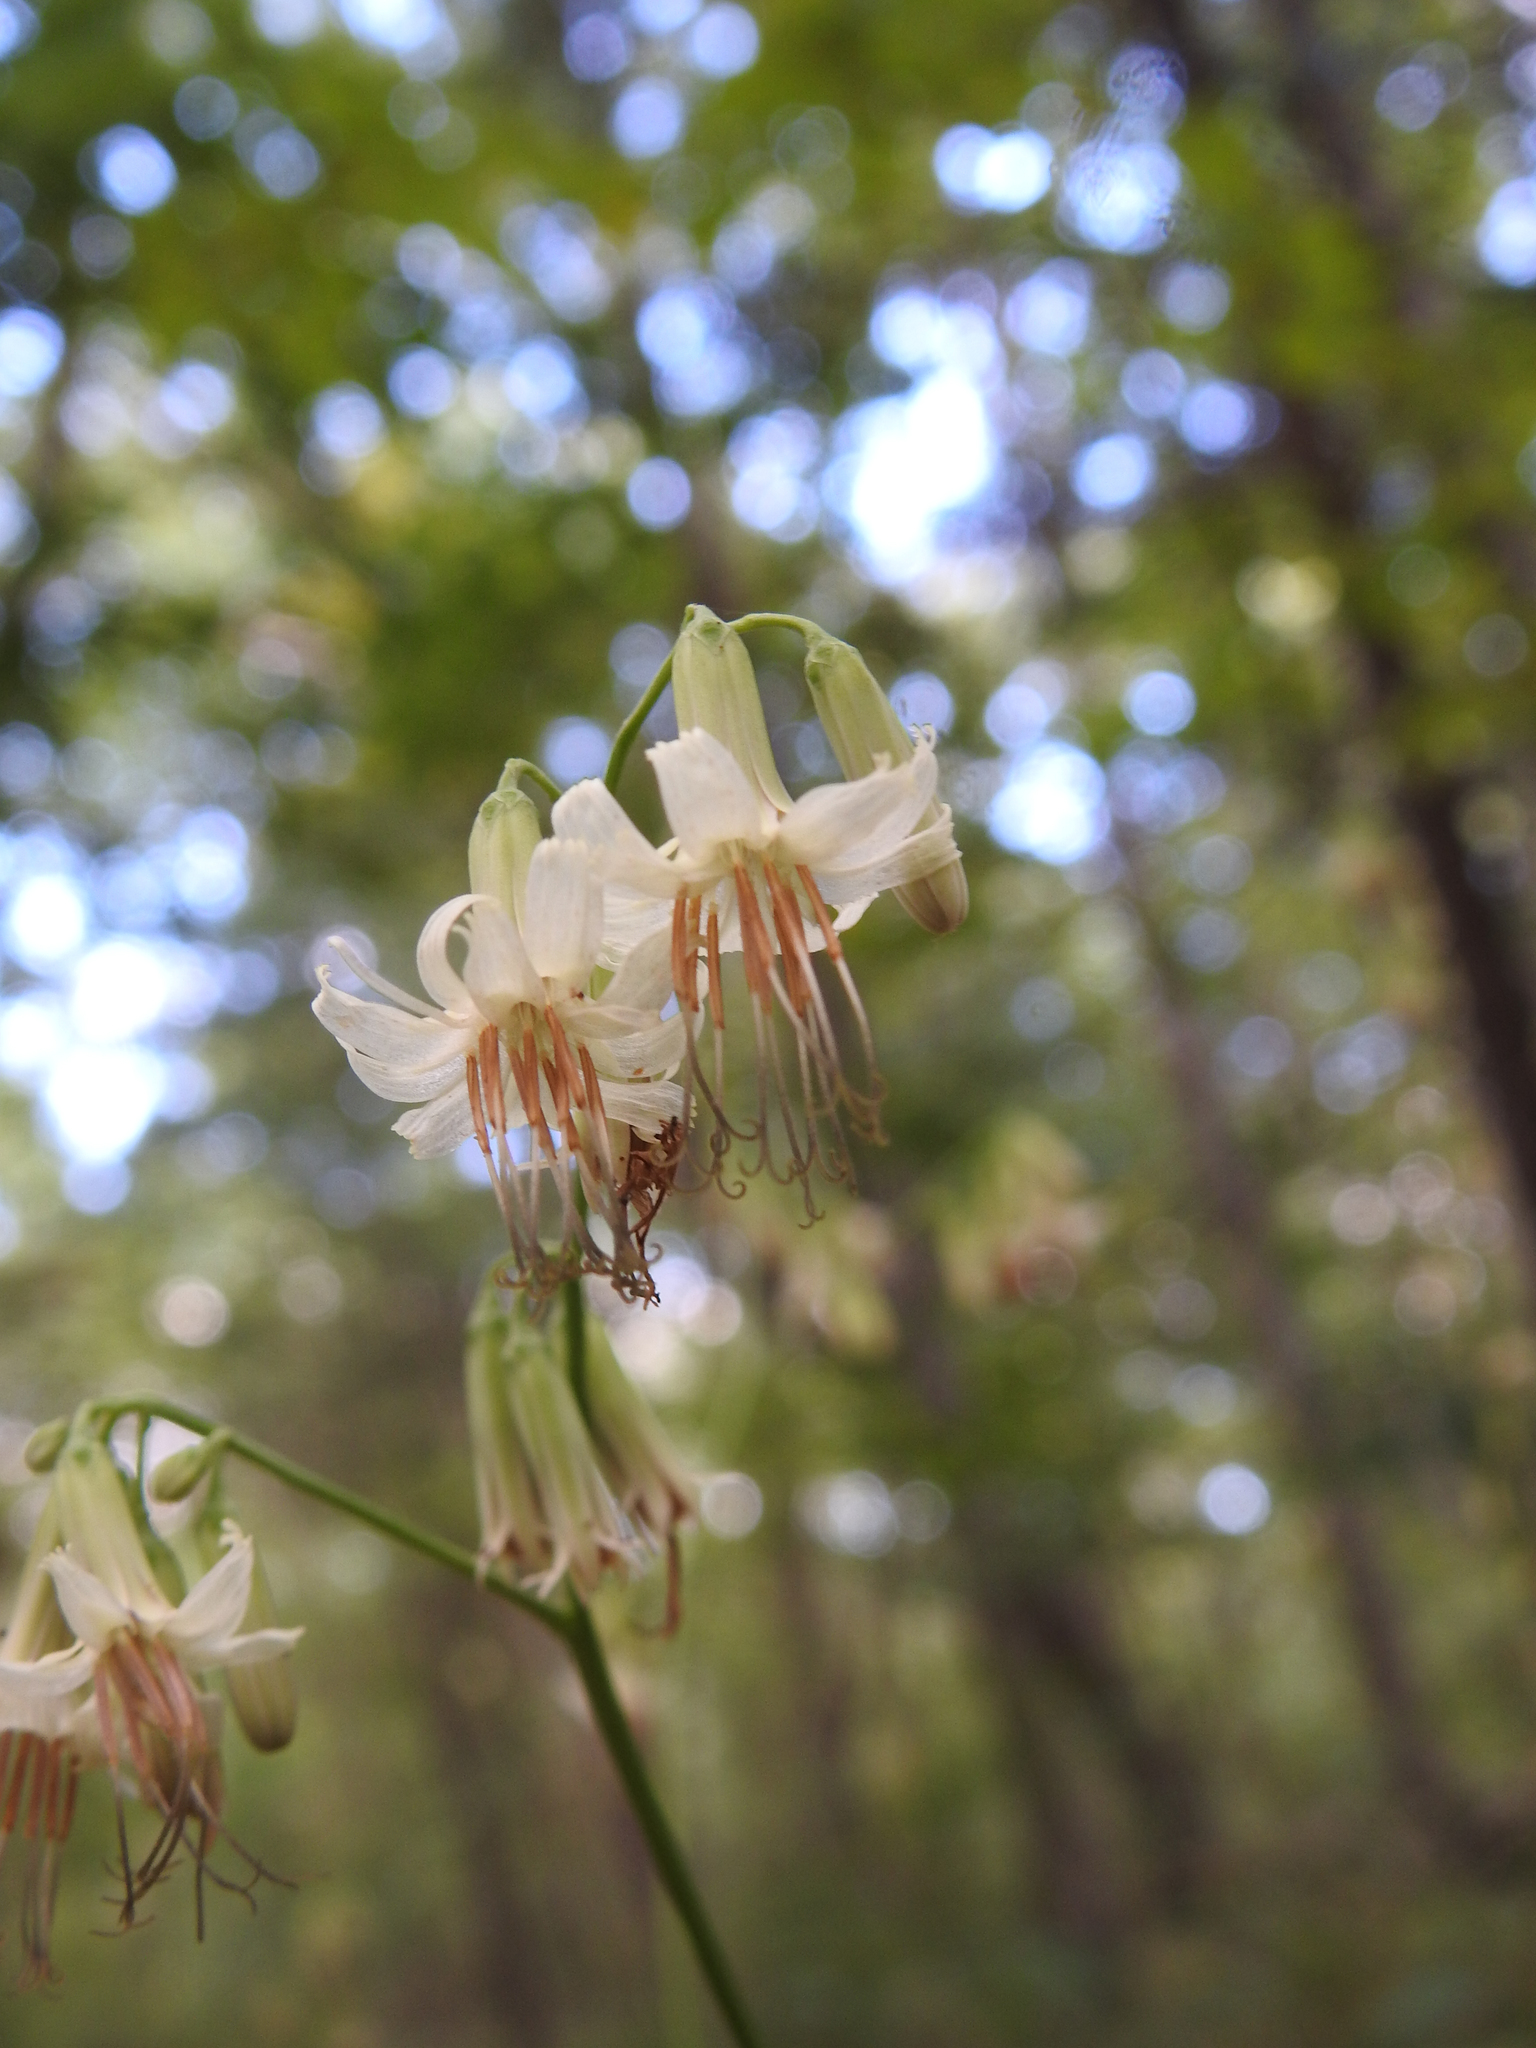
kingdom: Plantae
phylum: Tracheophyta
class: Magnoliopsida
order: Asterales
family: Asteraceae
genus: Nabalus
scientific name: Nabalus albus
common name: White rattlesnakeroot
